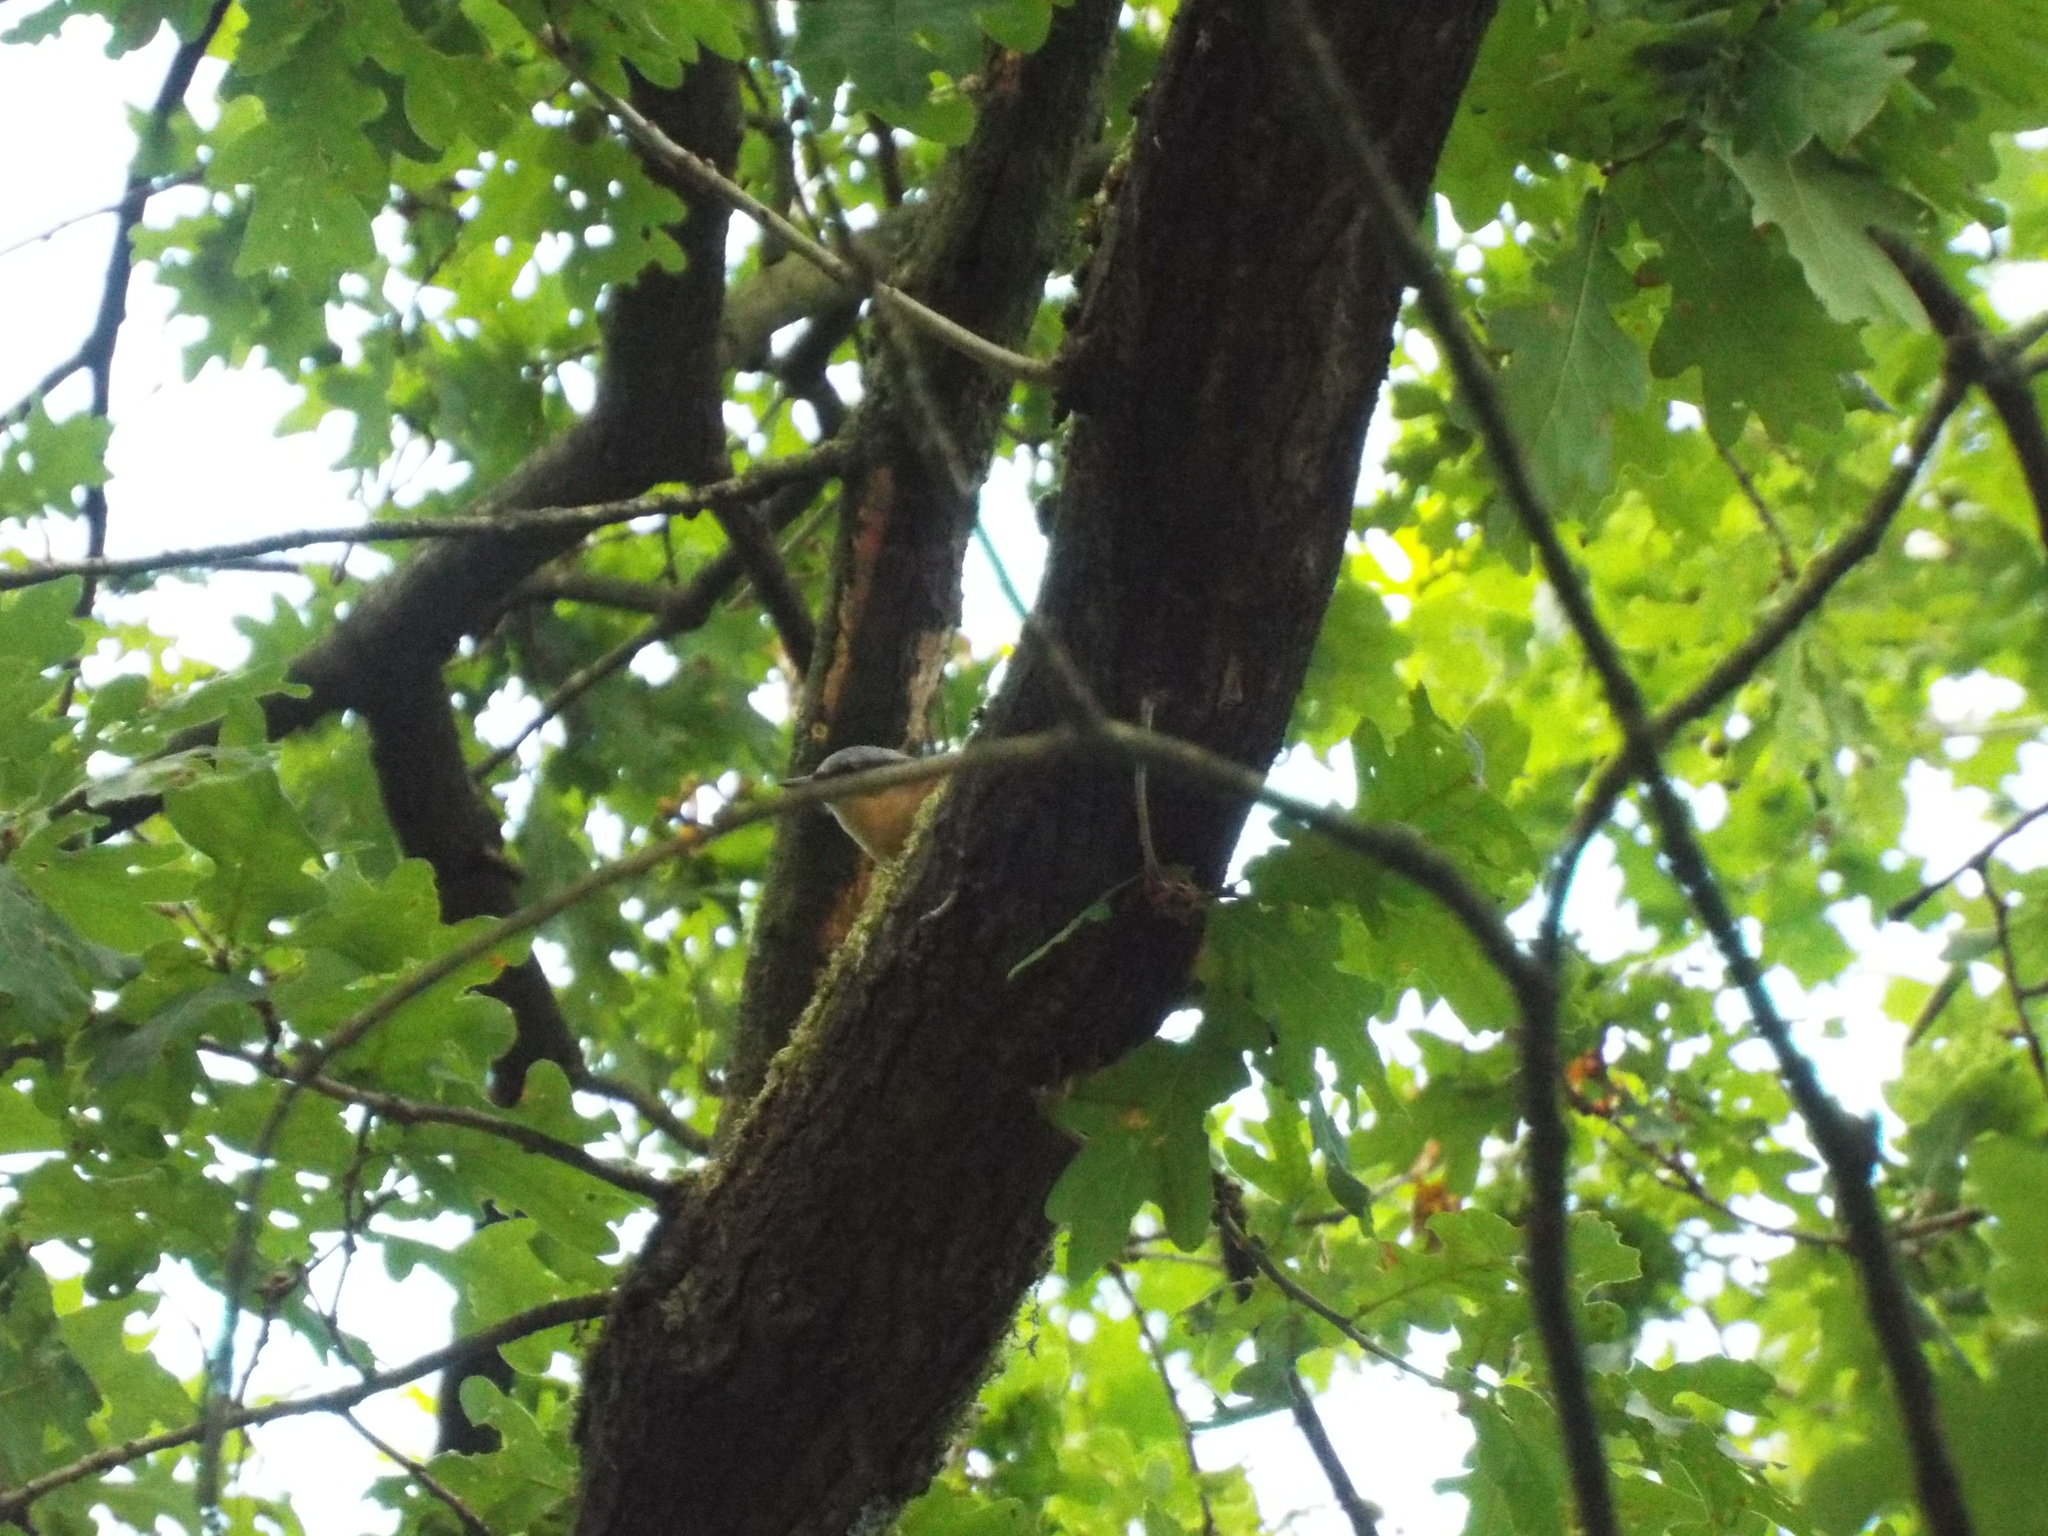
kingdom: Animalia
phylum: Chordata
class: Aves
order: Passeriformes
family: Sittidae
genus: Sitta
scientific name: Sitta europaea
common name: Eurasian nuthatch
